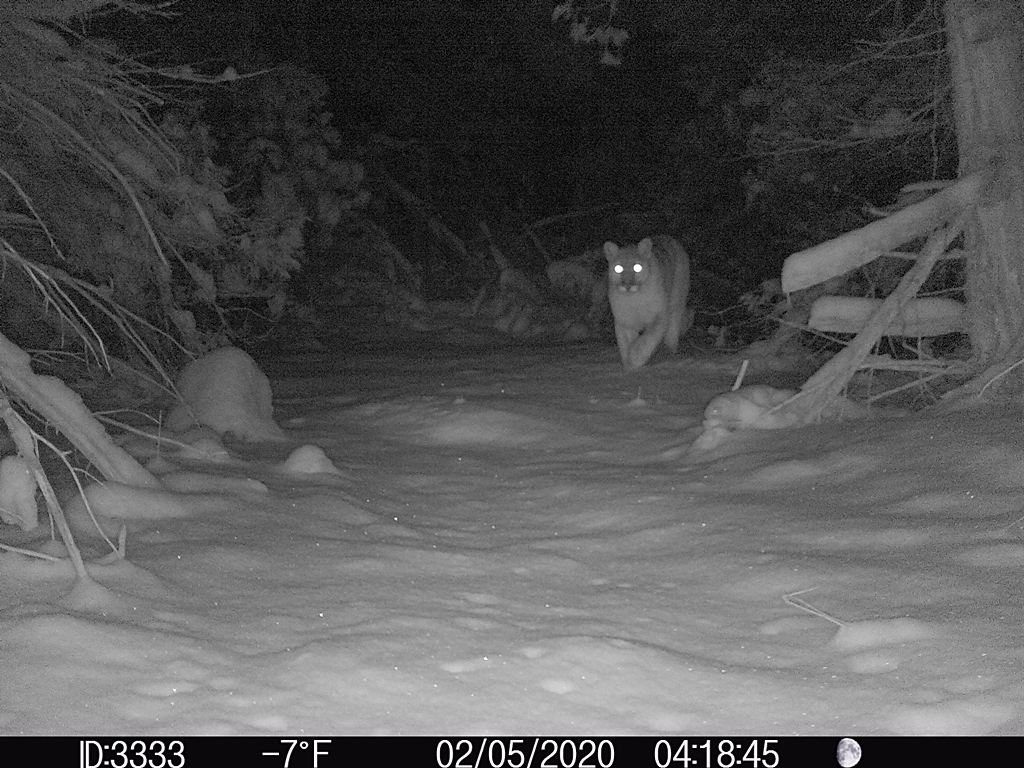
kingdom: Animalia
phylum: Chordata
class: Mammalia
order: Carnivora
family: Felidae
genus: Puma
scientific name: Puma concolor
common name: Puma
